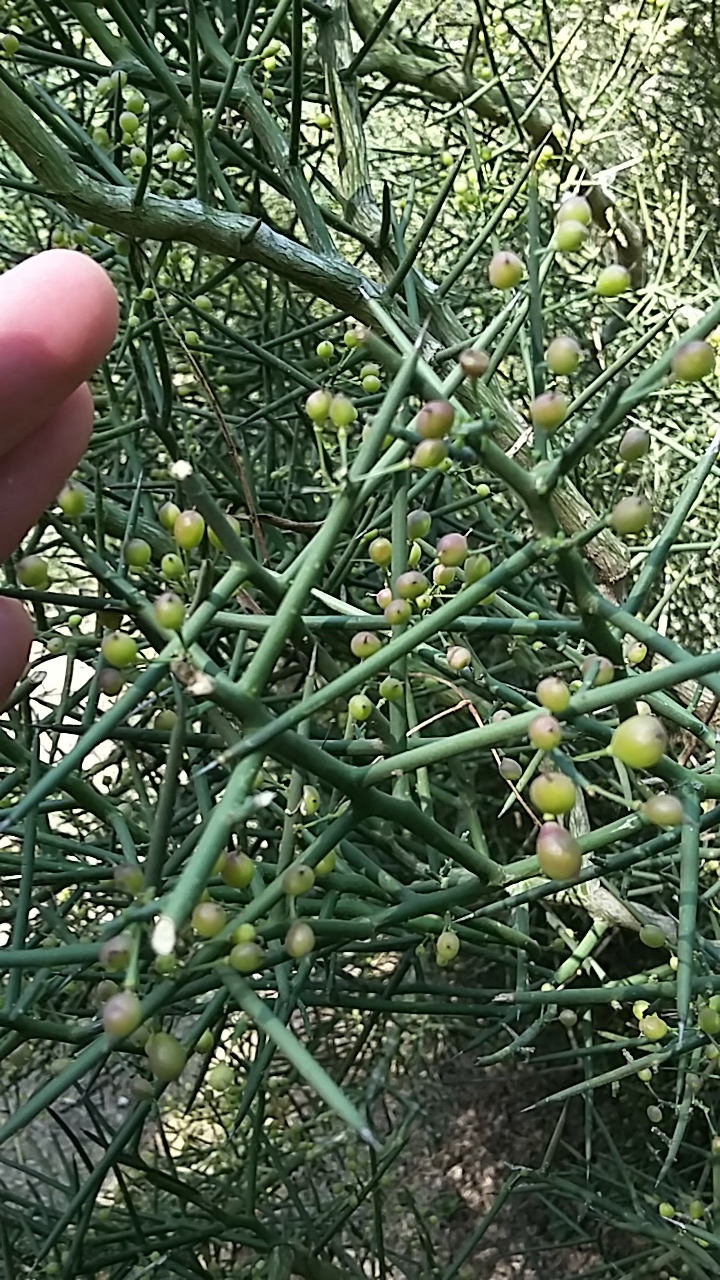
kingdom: Plantae
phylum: Tracheophyta
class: Magnoliopsida
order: Brassicales
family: Koeberliniaceae
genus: Koeberlinia
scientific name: Koeberlinia spinosa
